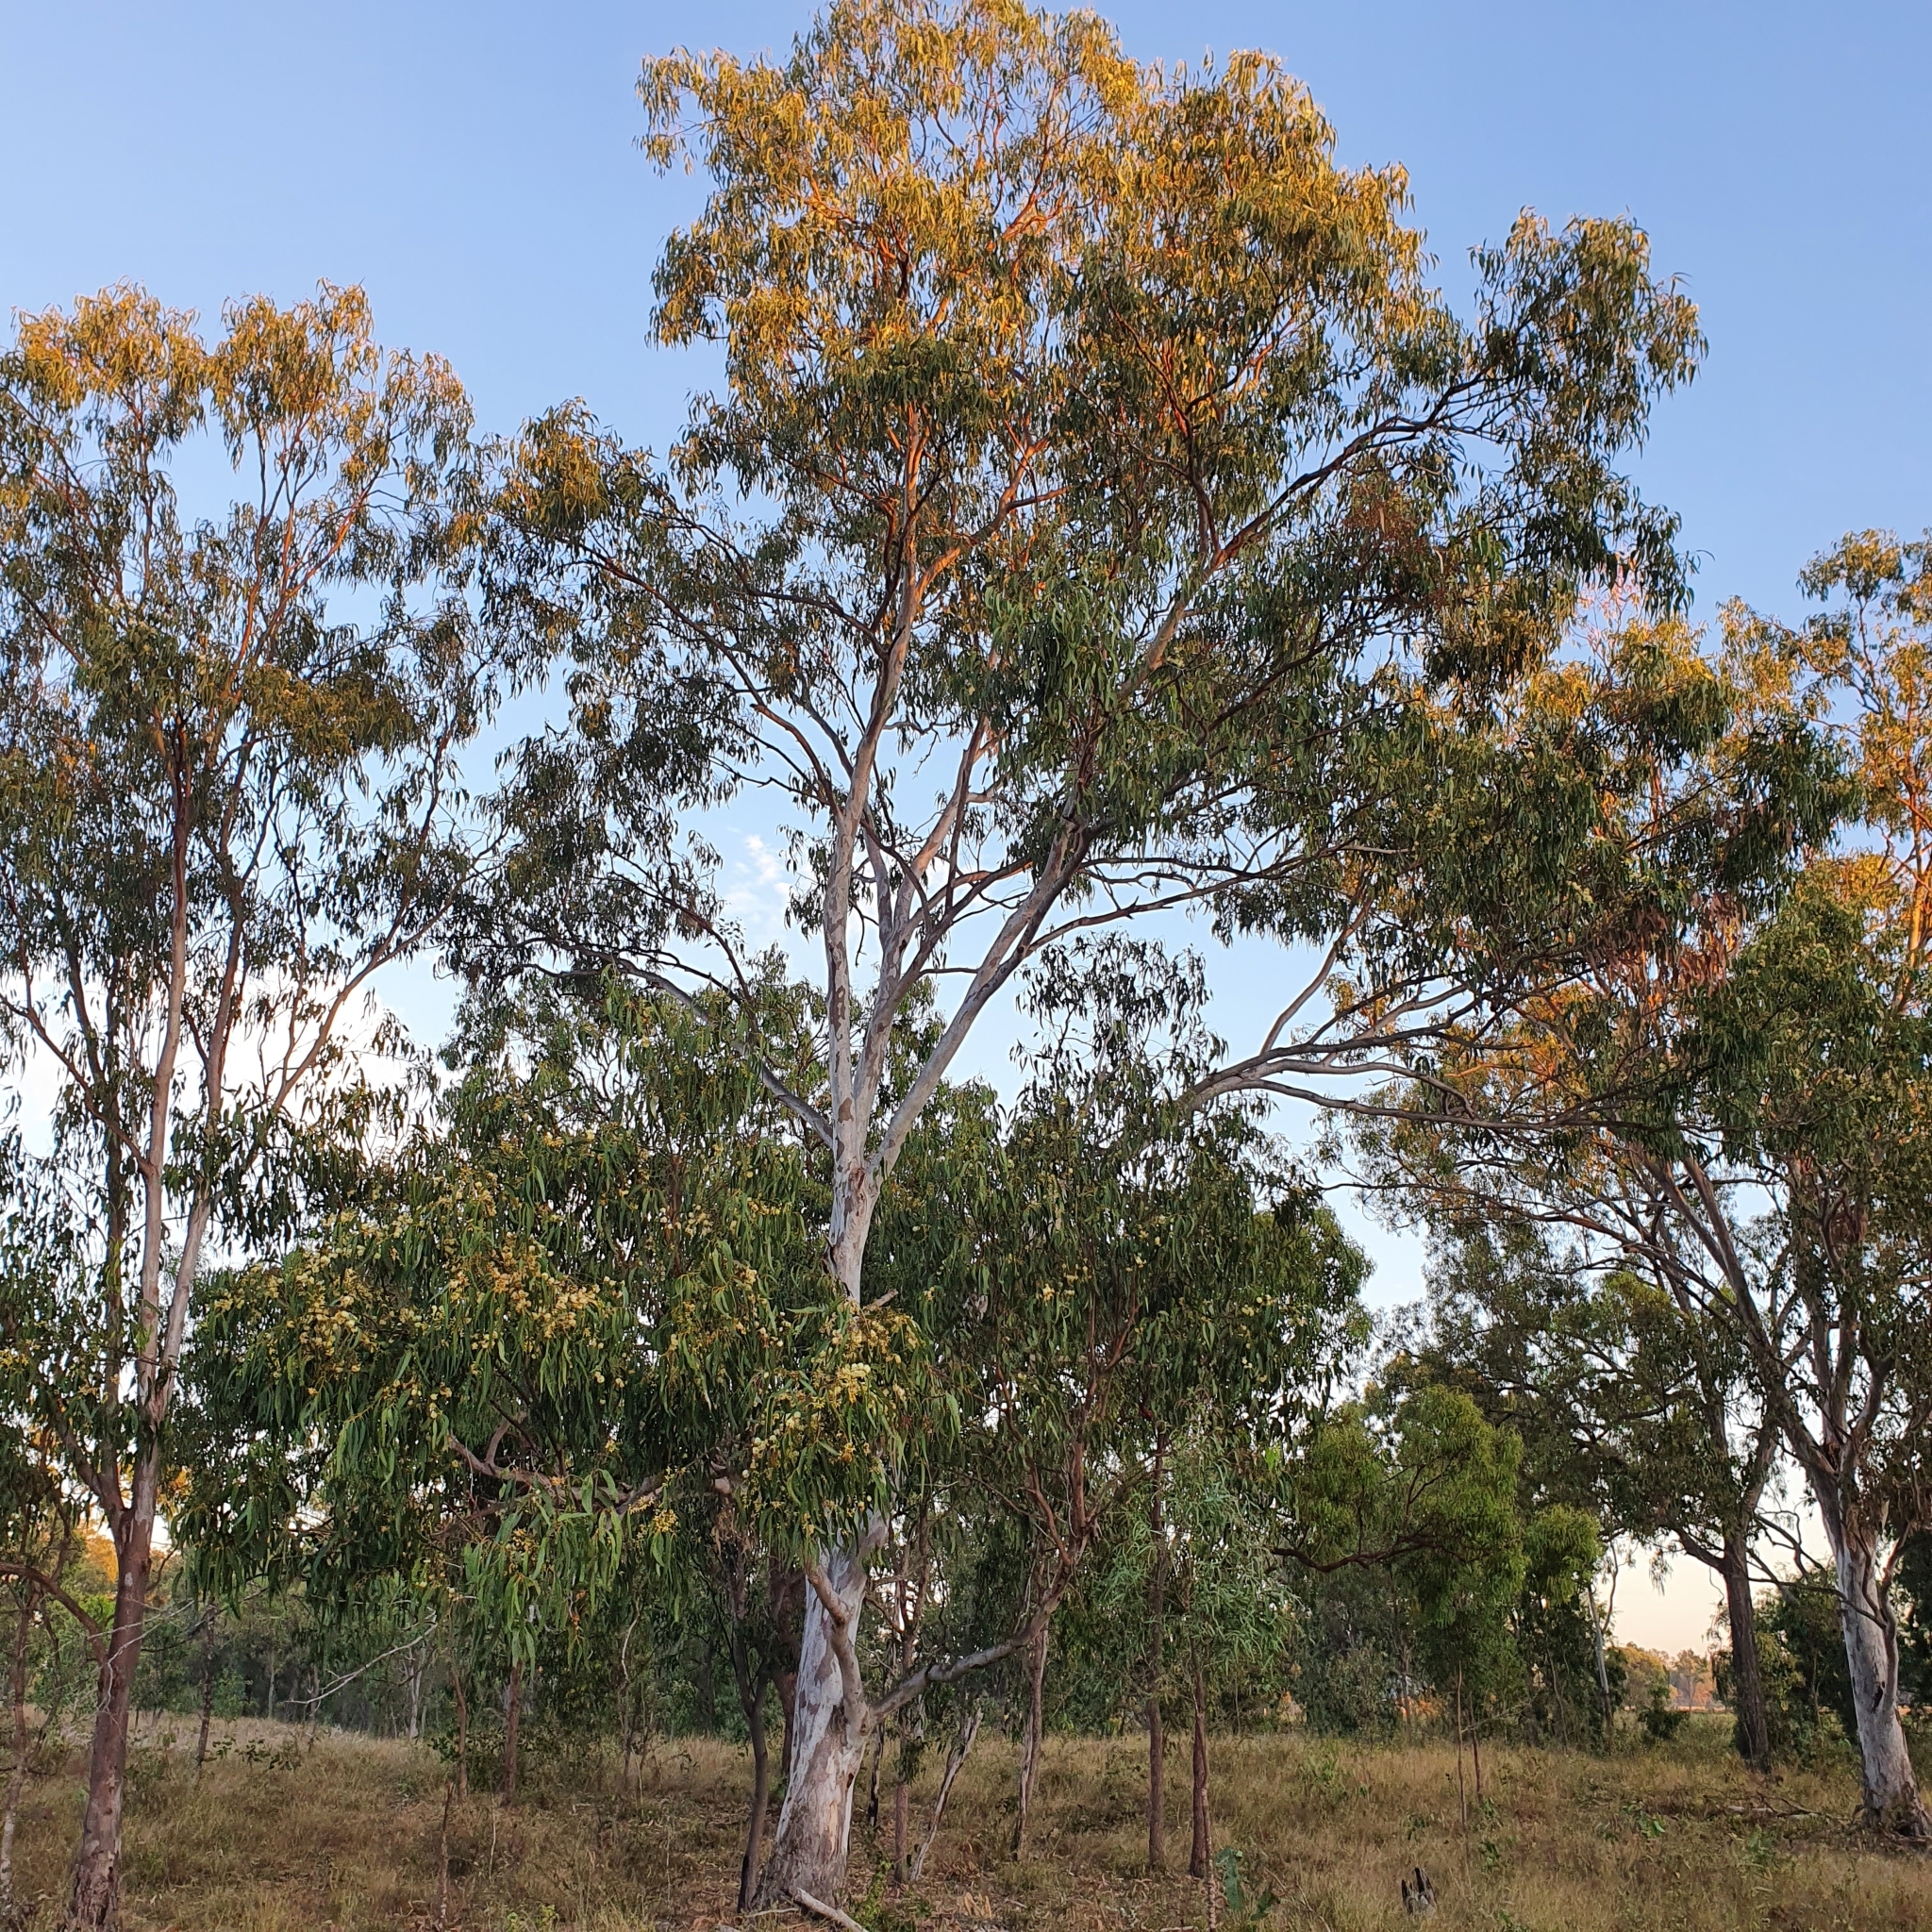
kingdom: Plantae
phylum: Tracheophyta
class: Magnoliopsida
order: Myrtales
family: Myrtaceae
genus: Eucalyptus
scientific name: Eucalyptus tereticornis
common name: Forest redgum
